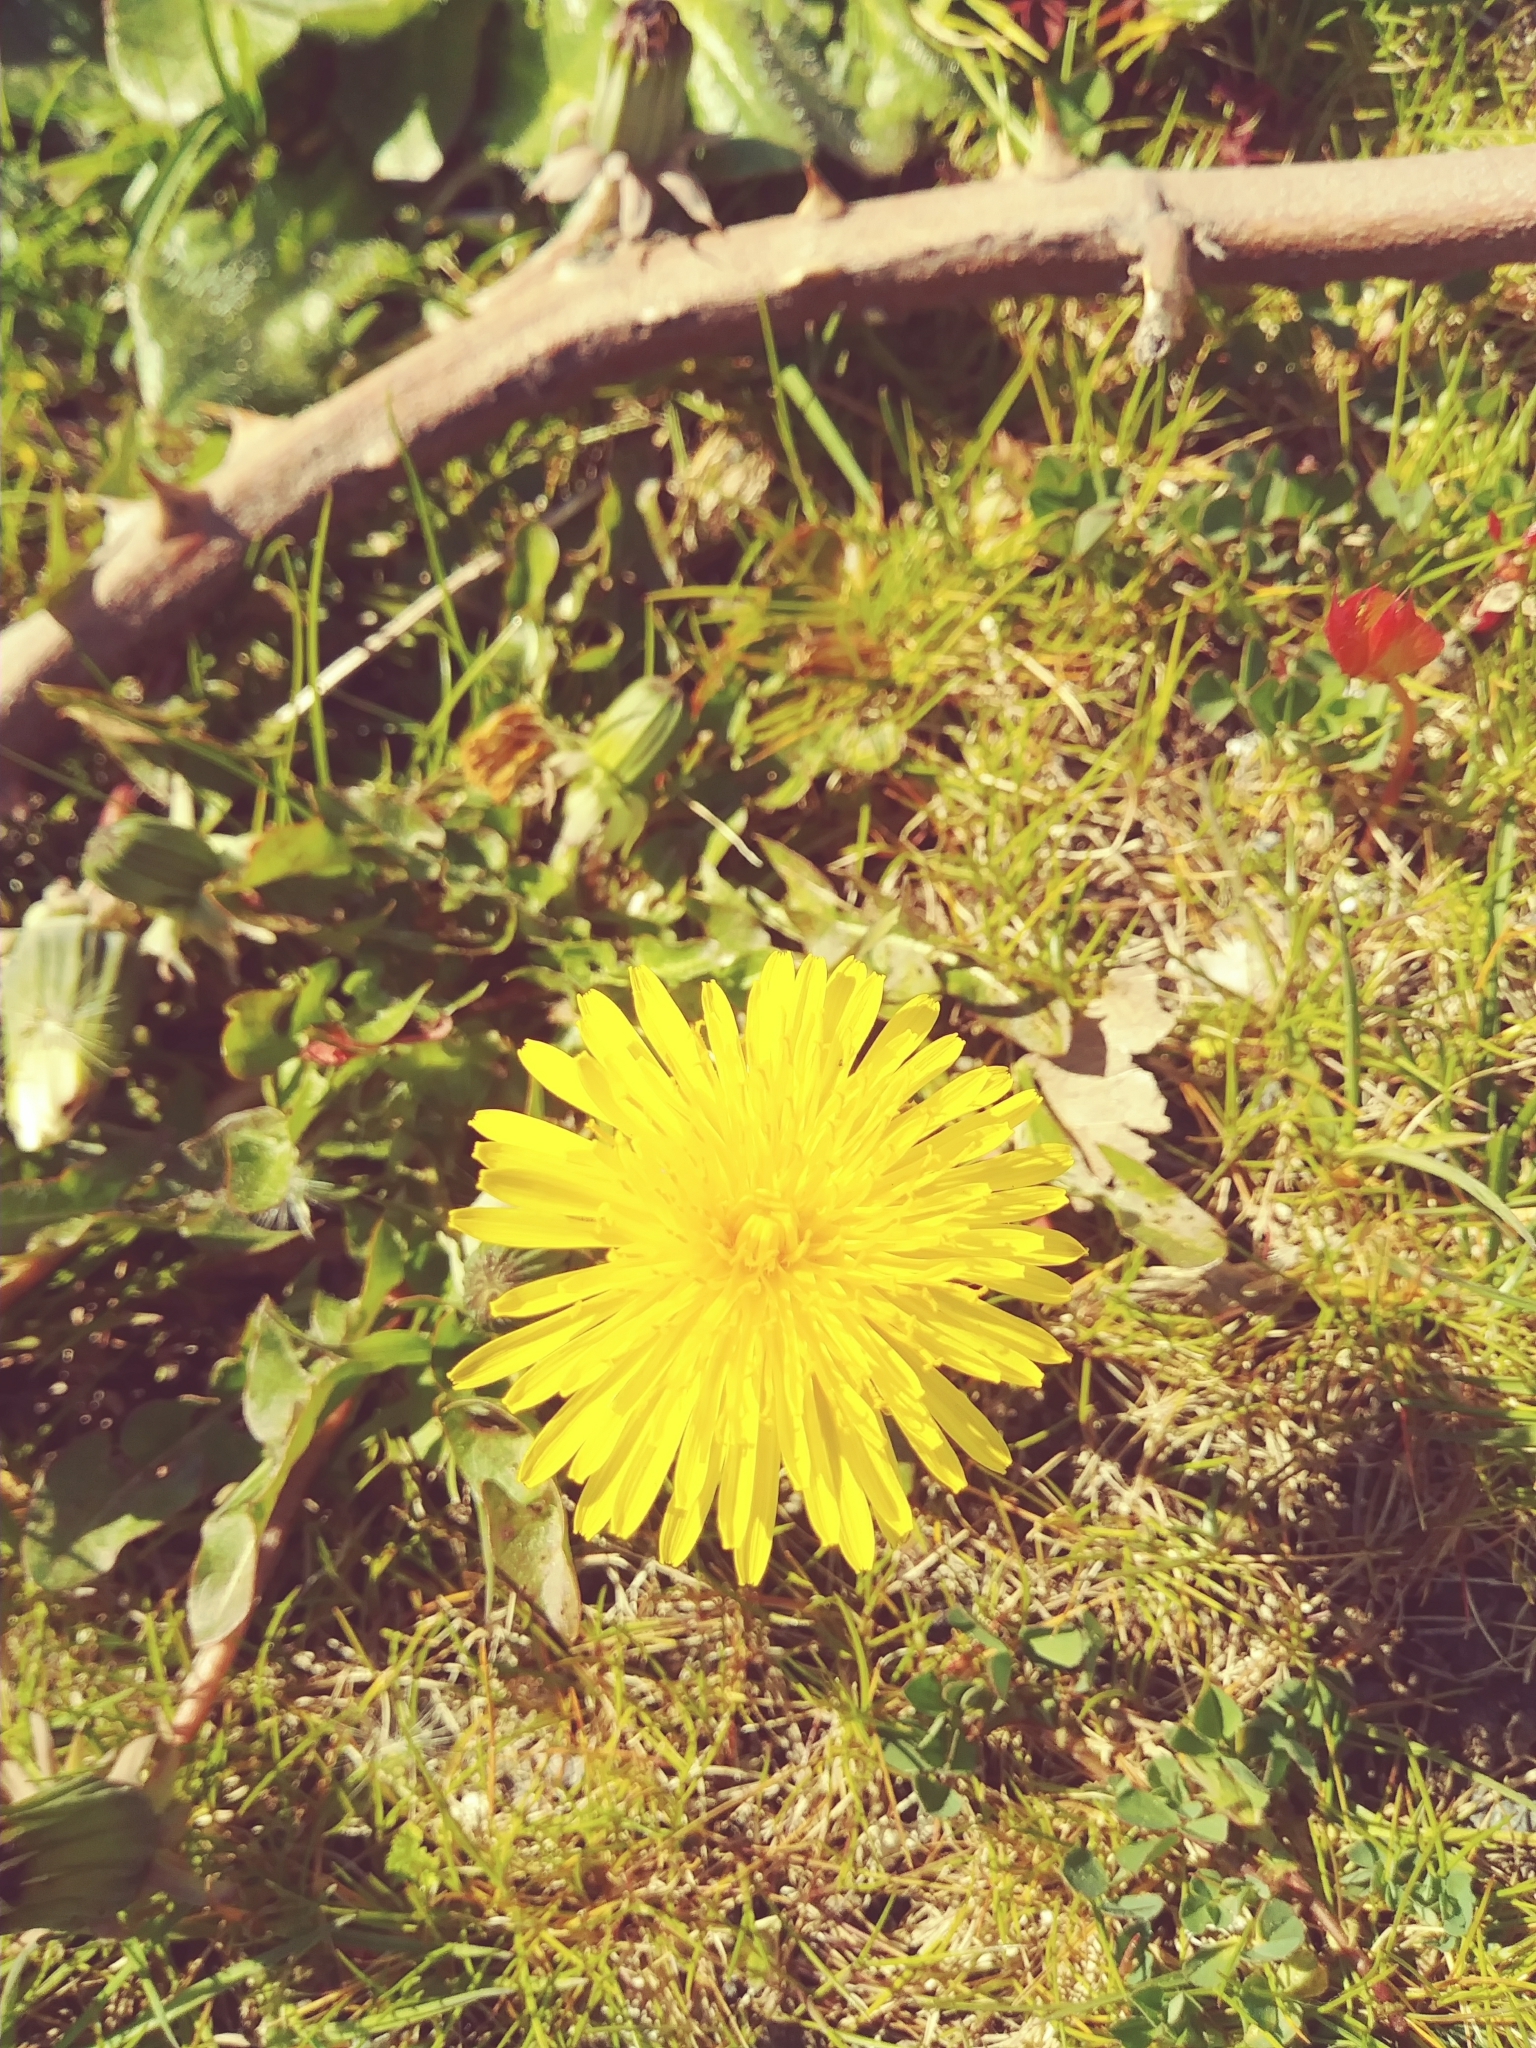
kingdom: Plantae
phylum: Tracheophyta
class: Magnoliopsida
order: Asterales
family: Asteraceae
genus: Taraxacum
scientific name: Taraxacum officinale
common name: Common dandelion
